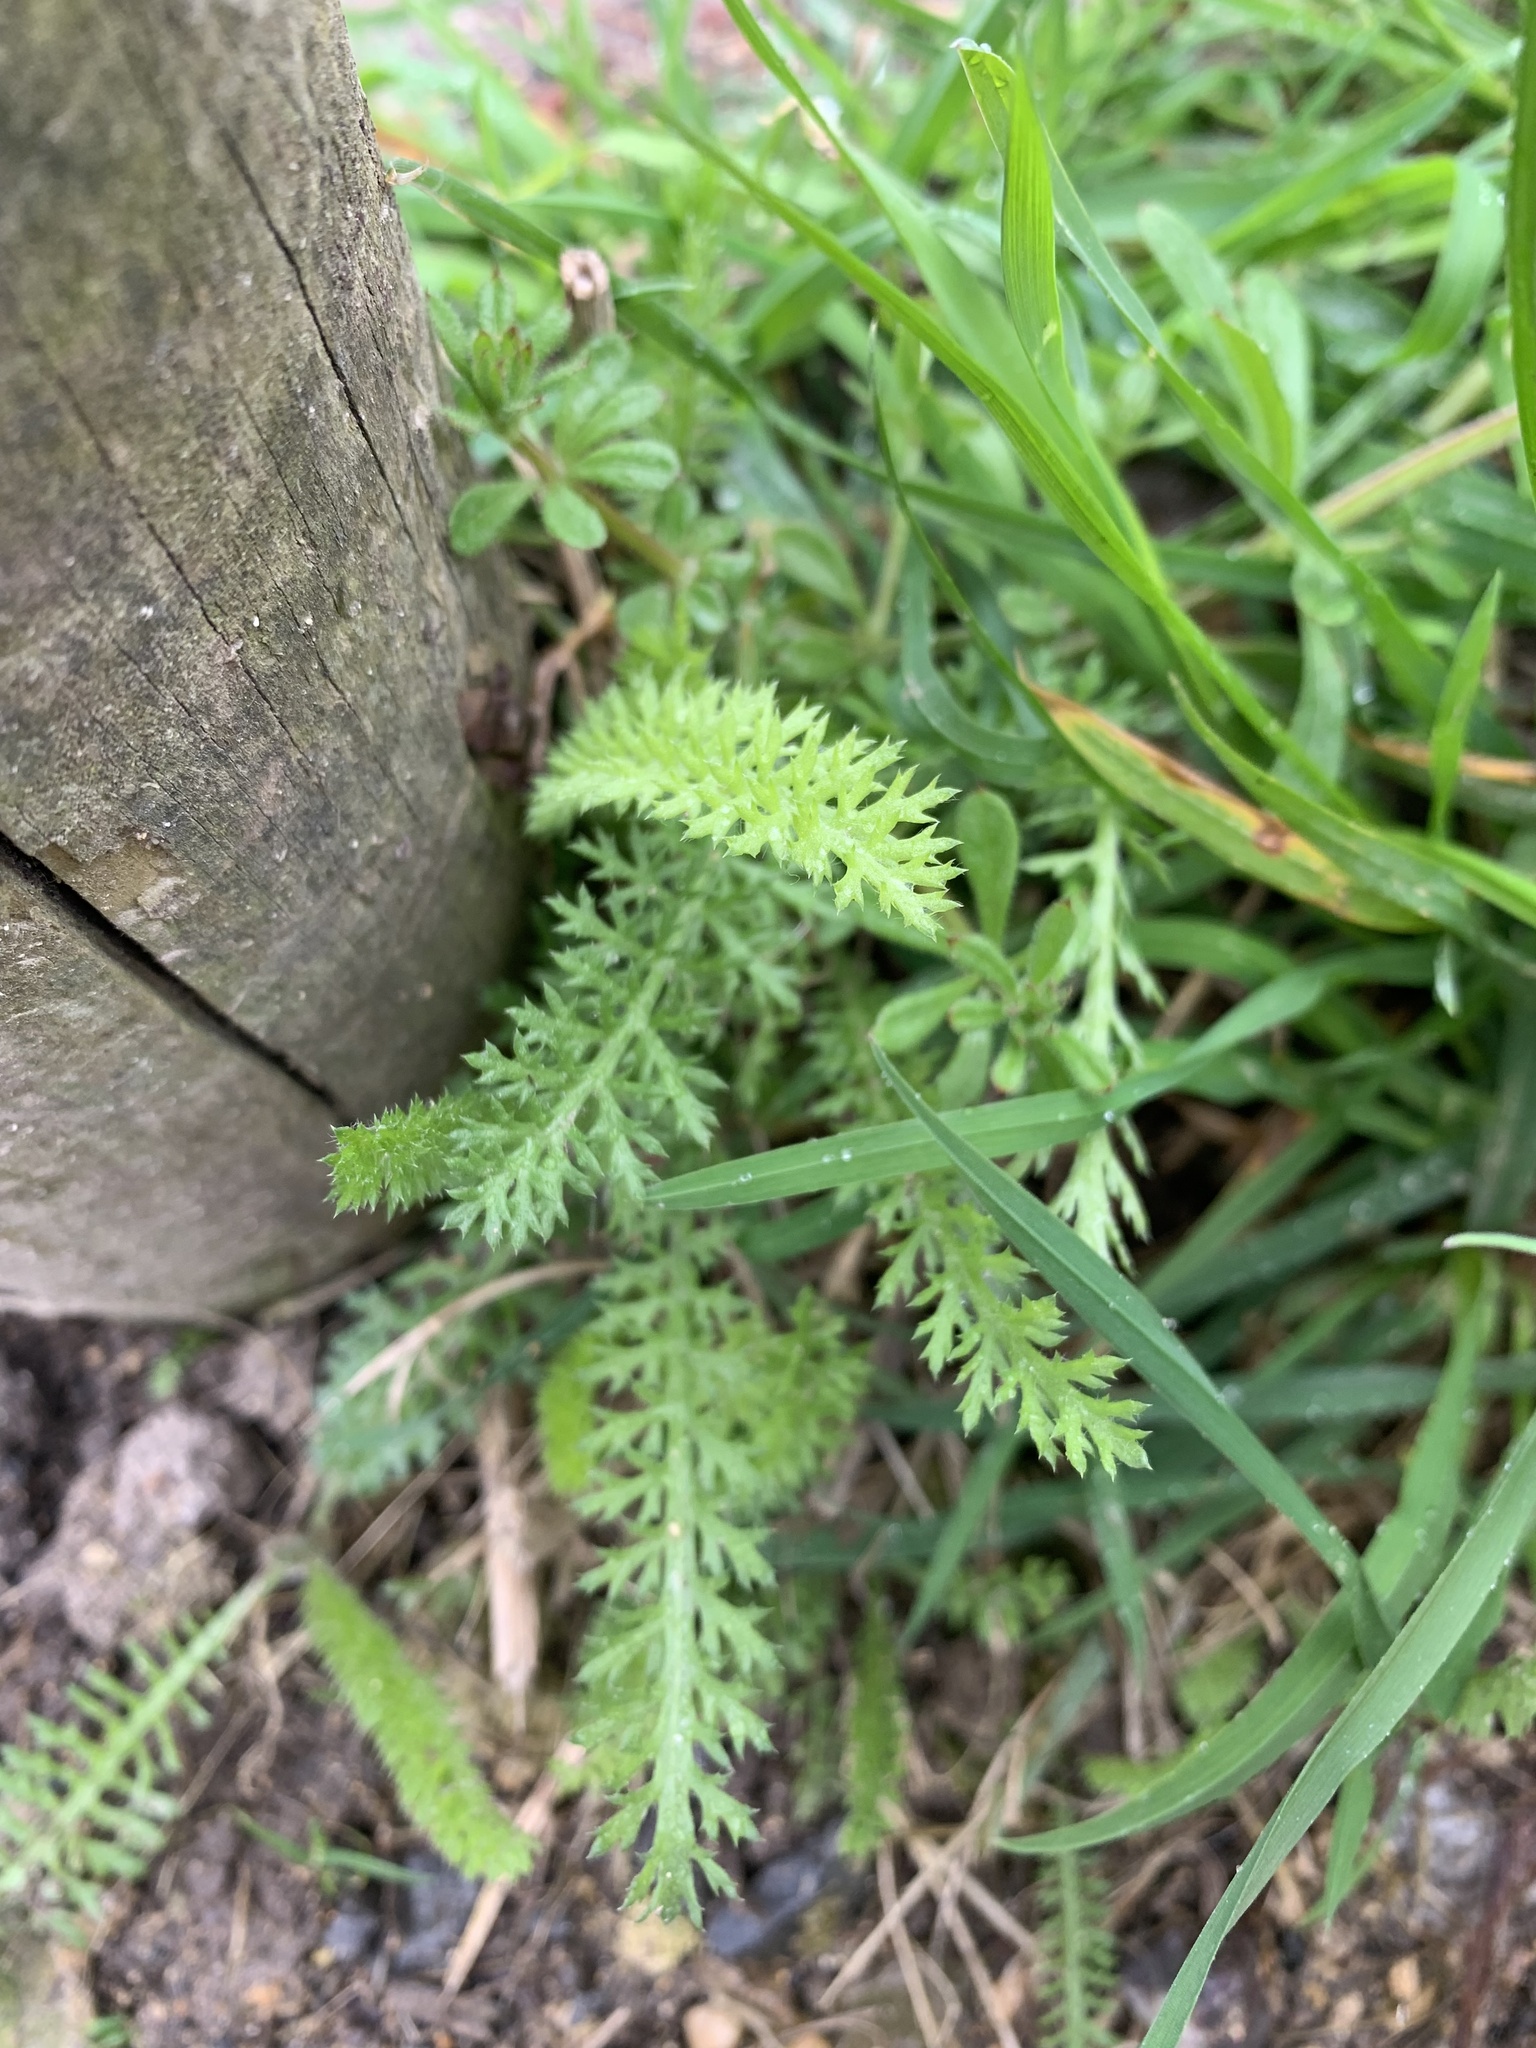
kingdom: Plantae
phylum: Tracheophyta
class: Magnoliopsida
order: Asterales
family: Asteraceae
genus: Achillea
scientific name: Achillea millefolium
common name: Yarrow
